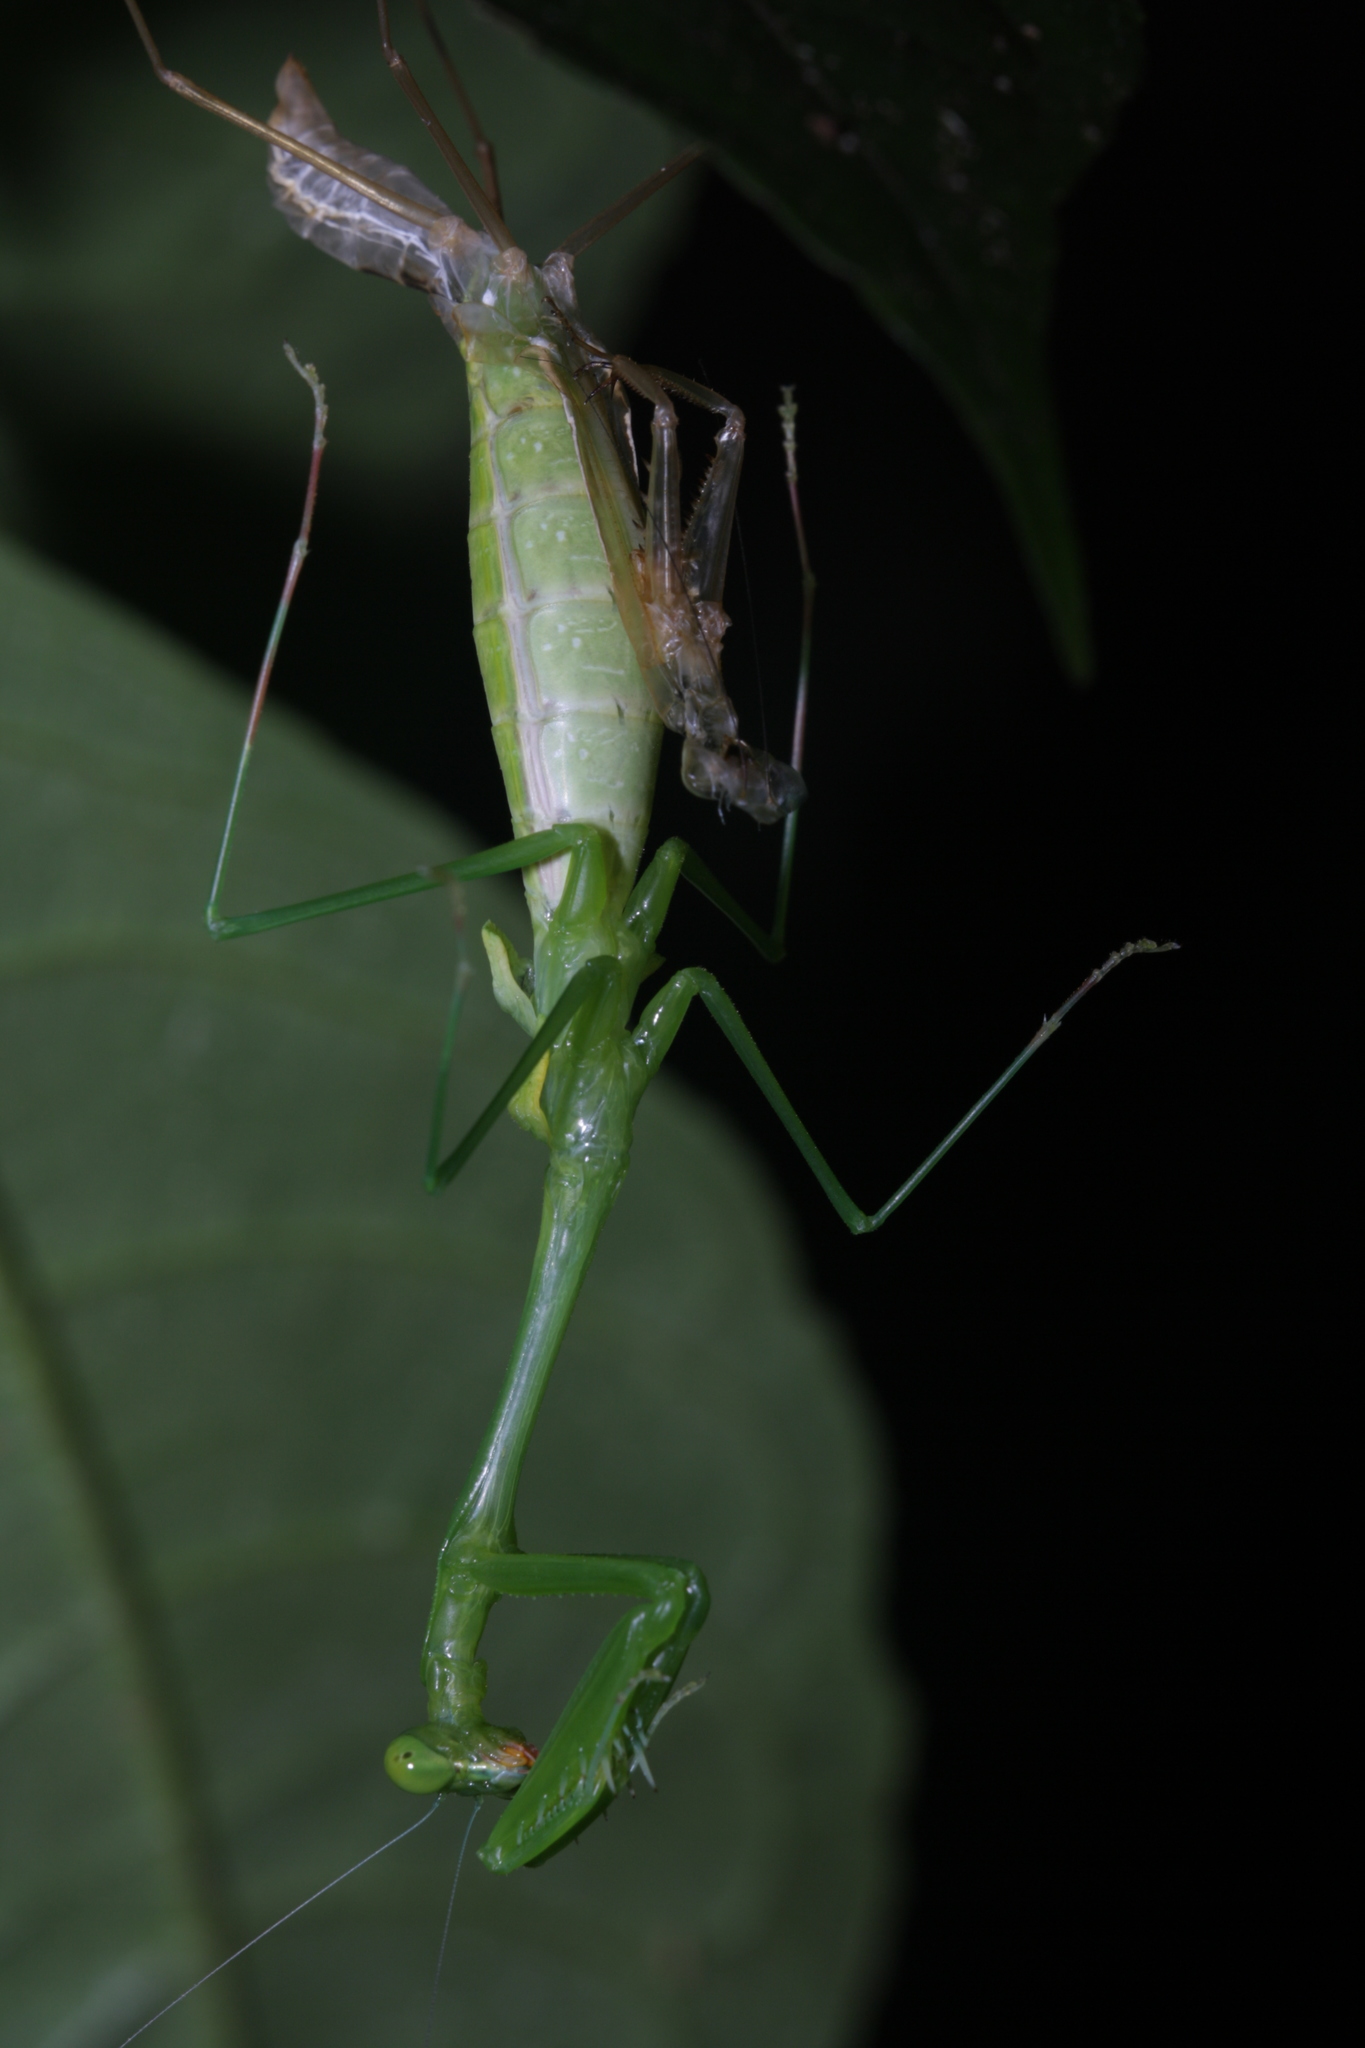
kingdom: Animalia
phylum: Arthropoda
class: Insecta
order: Mantodea
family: Mantidae
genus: Chopardiella
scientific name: Chopardiella heterogamia
